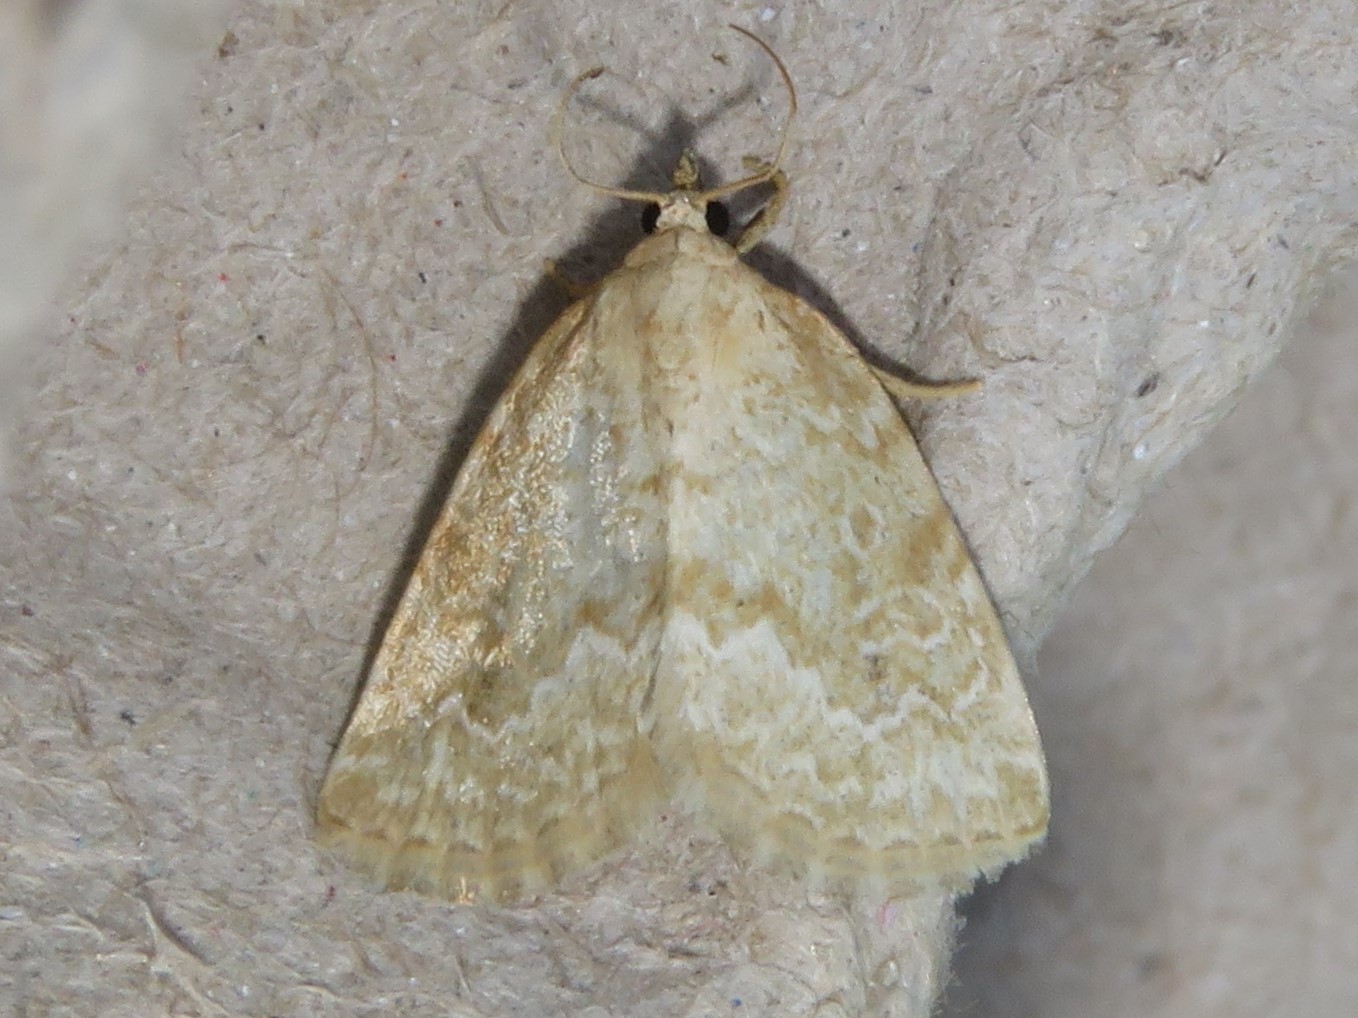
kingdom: Animalia
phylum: Arthropoda
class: Insecta
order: Lepidoptera
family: Noctuidae
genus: Protodeltote
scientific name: Protodeltote albidula
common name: Pale glyph
